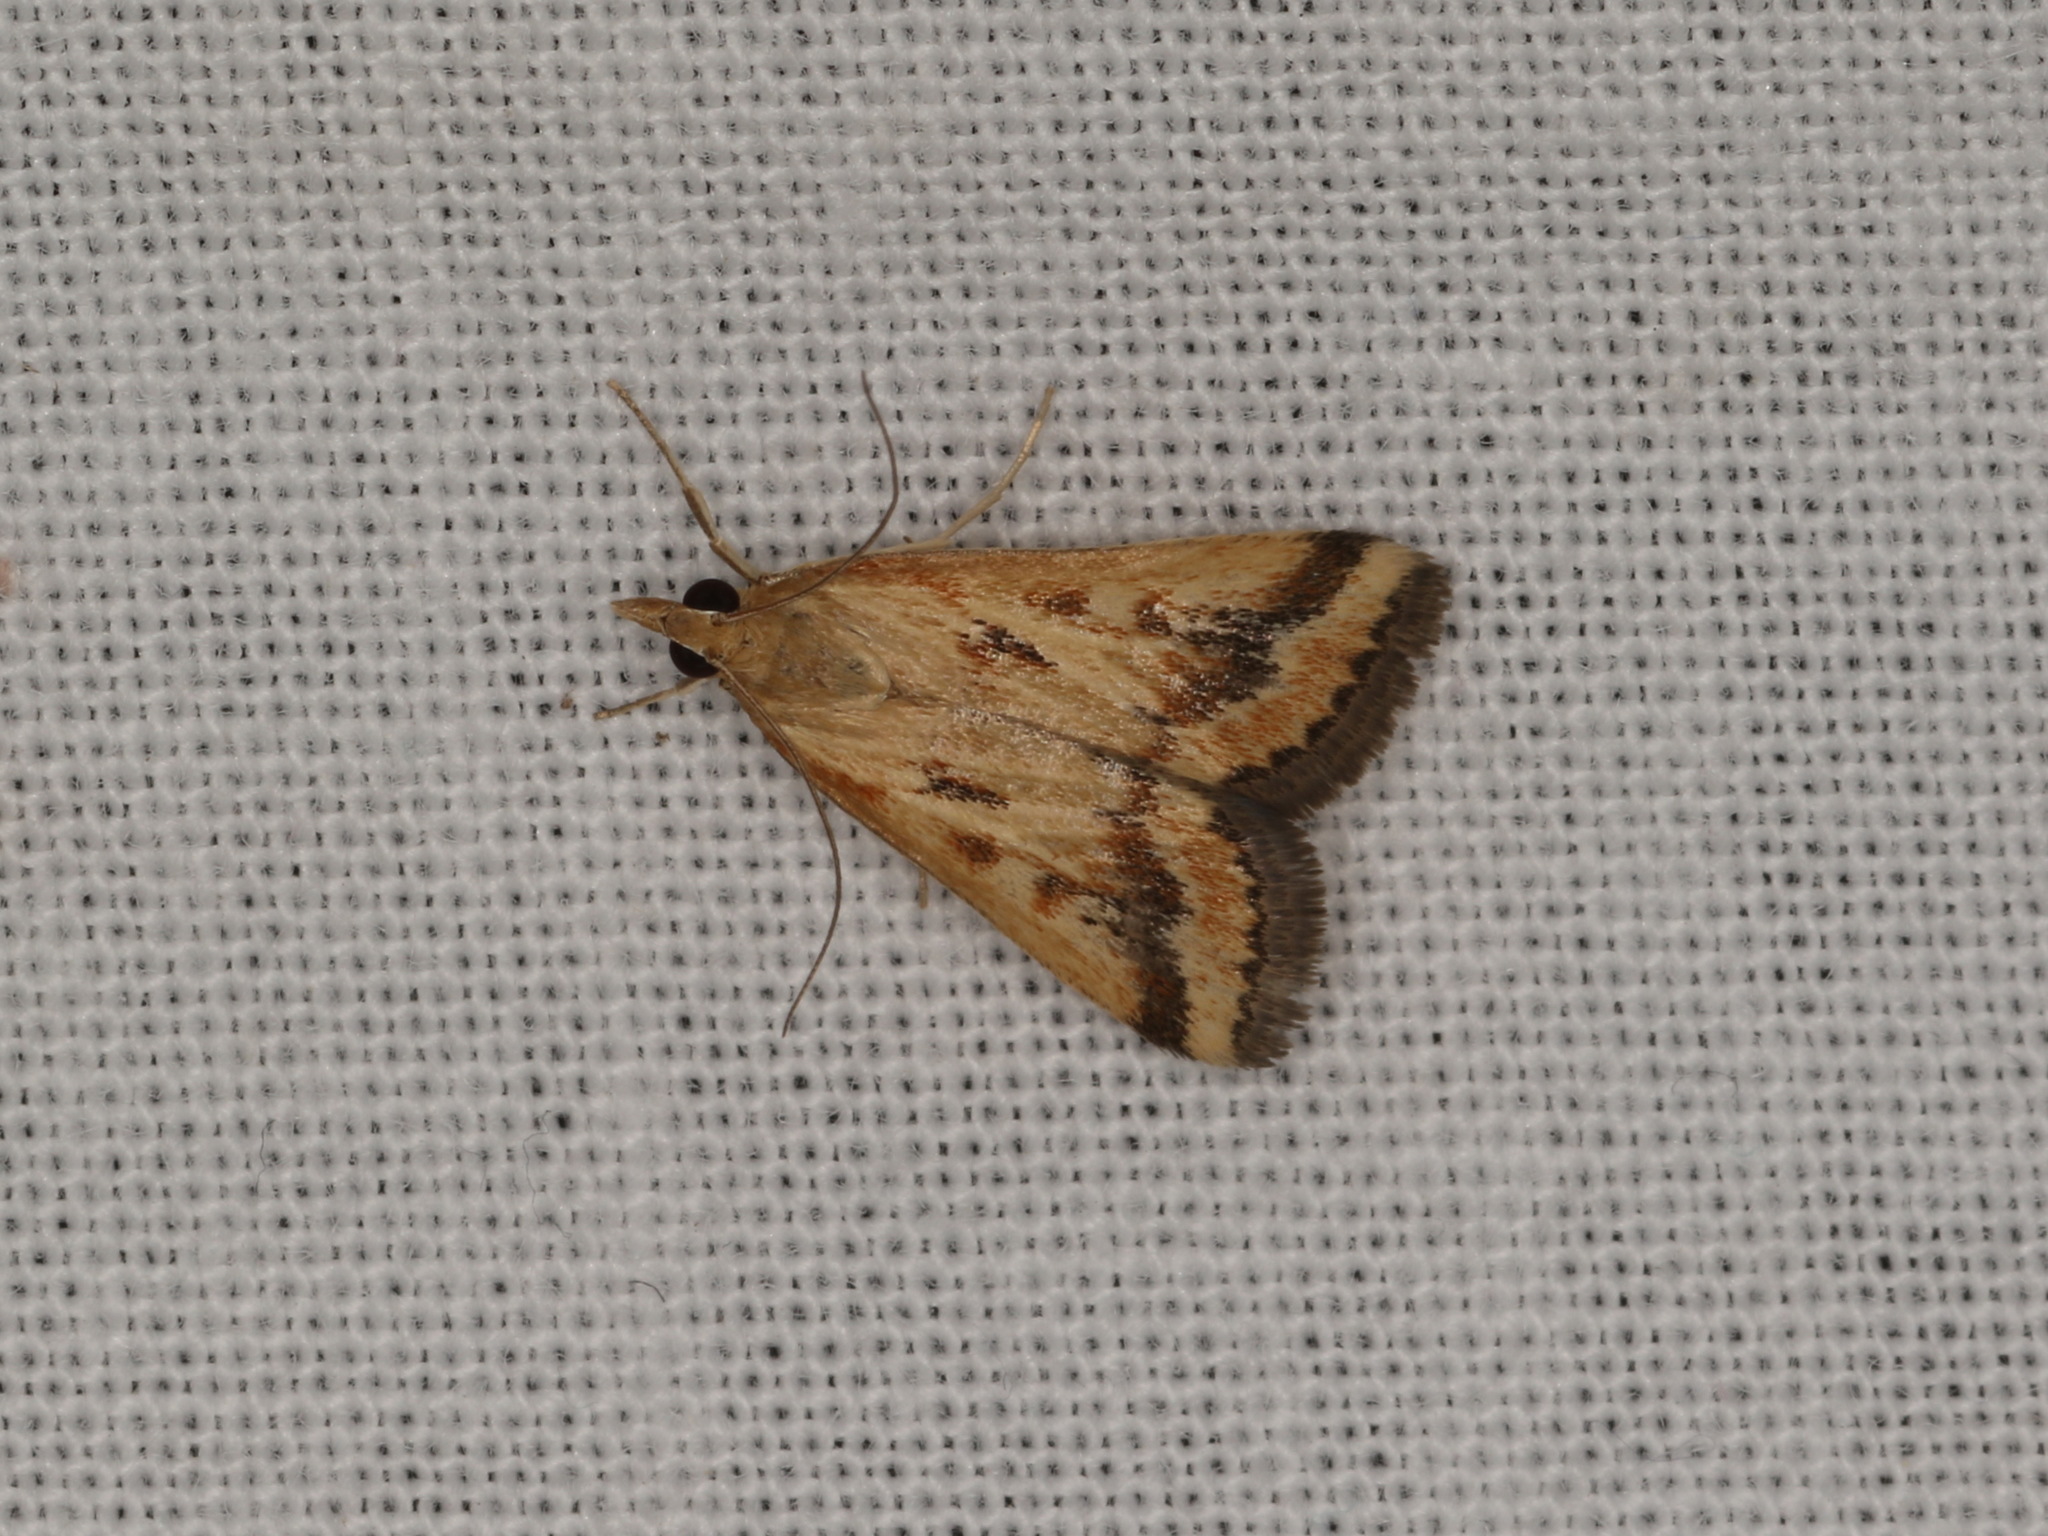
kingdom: Animalia
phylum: Arthropoda
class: Insecta
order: Lepidoptera
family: Crambidae
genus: Achyra
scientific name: Achyra massalis
